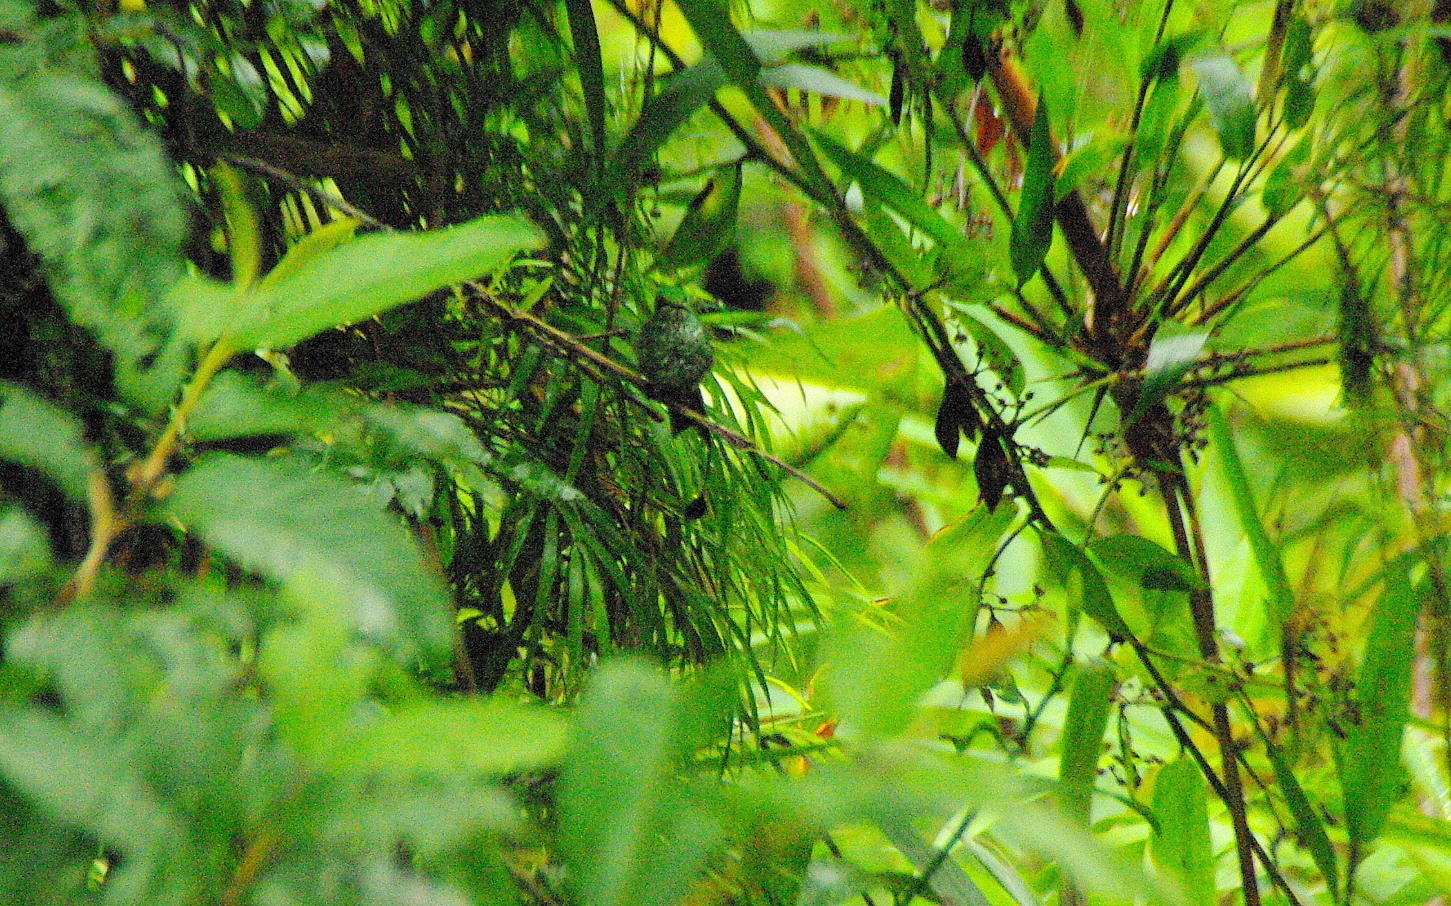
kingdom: Animalia
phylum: Chordata
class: Aves
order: Apodiformes
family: Trochilidae
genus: Ocreatus
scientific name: Ocreatus addae
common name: Rufous-booted racket-tail
